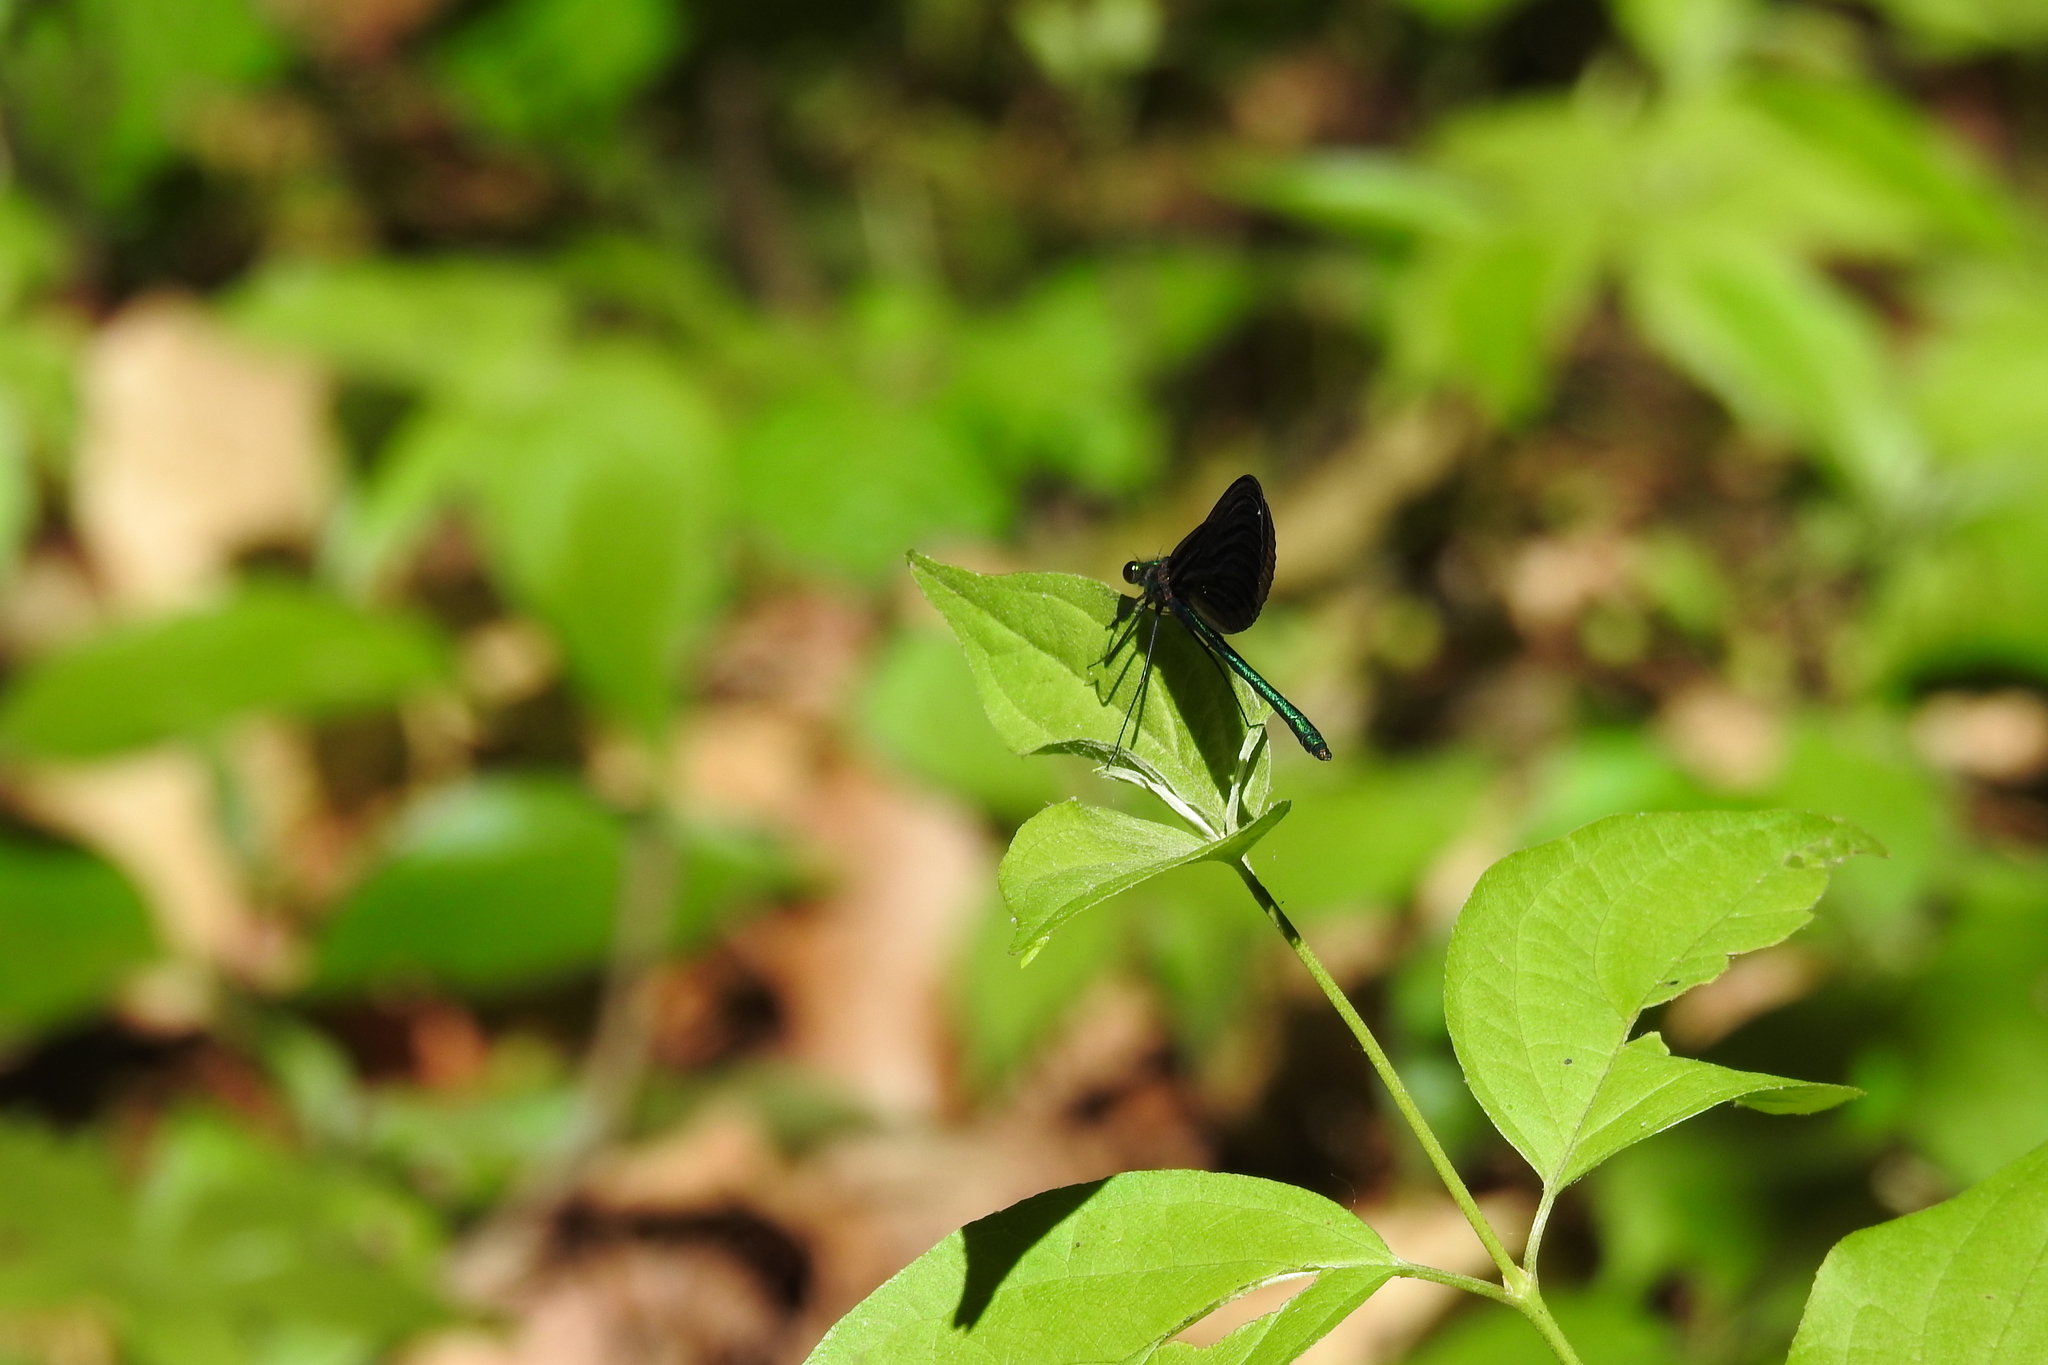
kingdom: Animalia
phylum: Arthropoda
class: Insecta
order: Odonata
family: Calopterygidae
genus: Calopteryx
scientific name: Calopteryx maculata
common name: Ebony jewelwing
